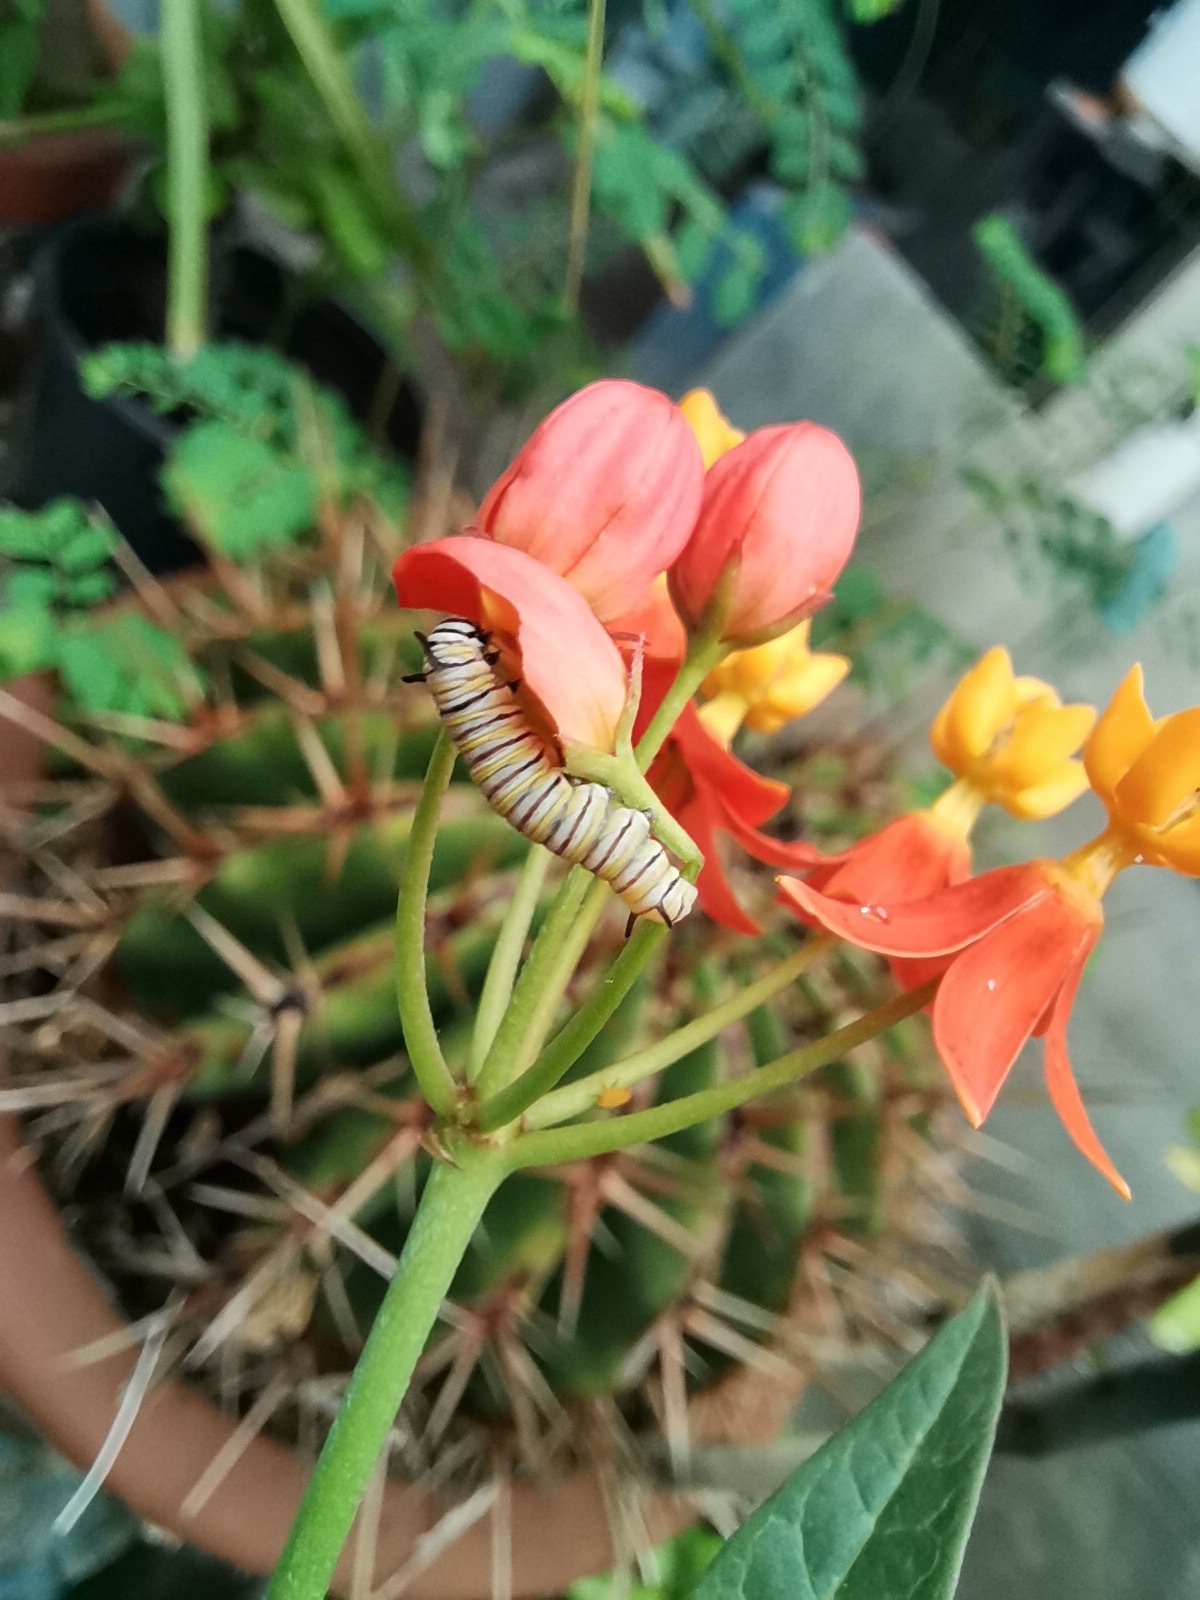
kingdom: Animalia
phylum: Arthropoda
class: Insecta
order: Lepidoptera
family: Nymphalidae
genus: Danaus
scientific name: Danaus plexippus
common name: Monarch
